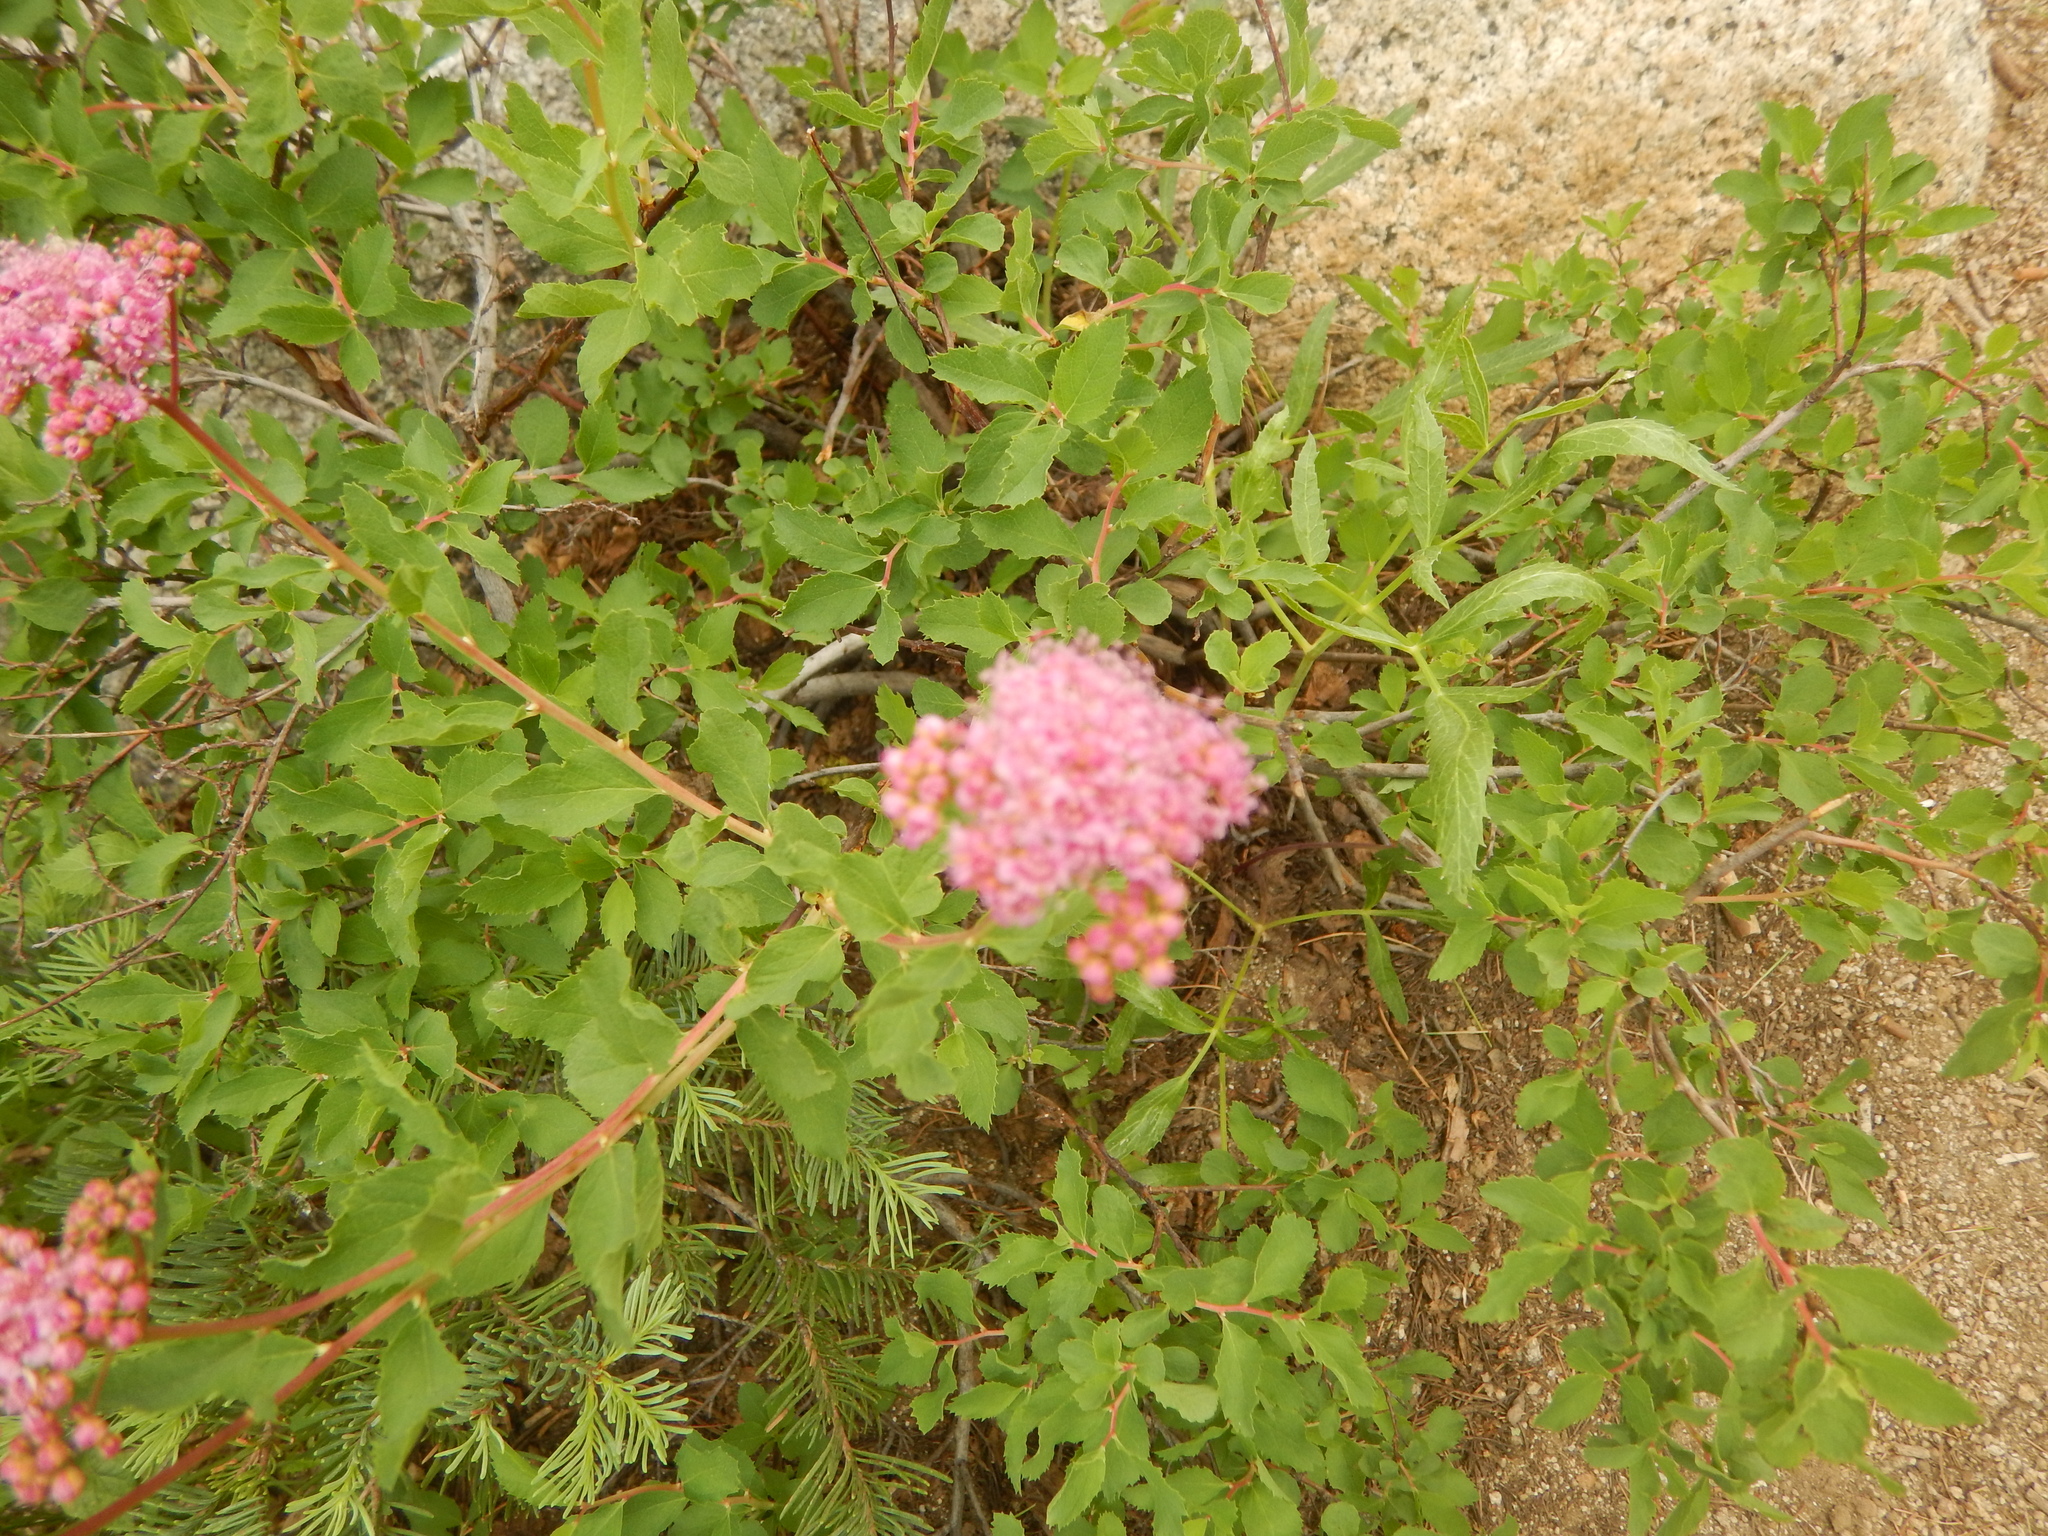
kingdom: Plantae
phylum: Tracheophyta
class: Magnoliopsida
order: Rosales
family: Rosaceae
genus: Spiraea
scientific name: Spiraea splendens
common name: Subalpine meadowsweet
